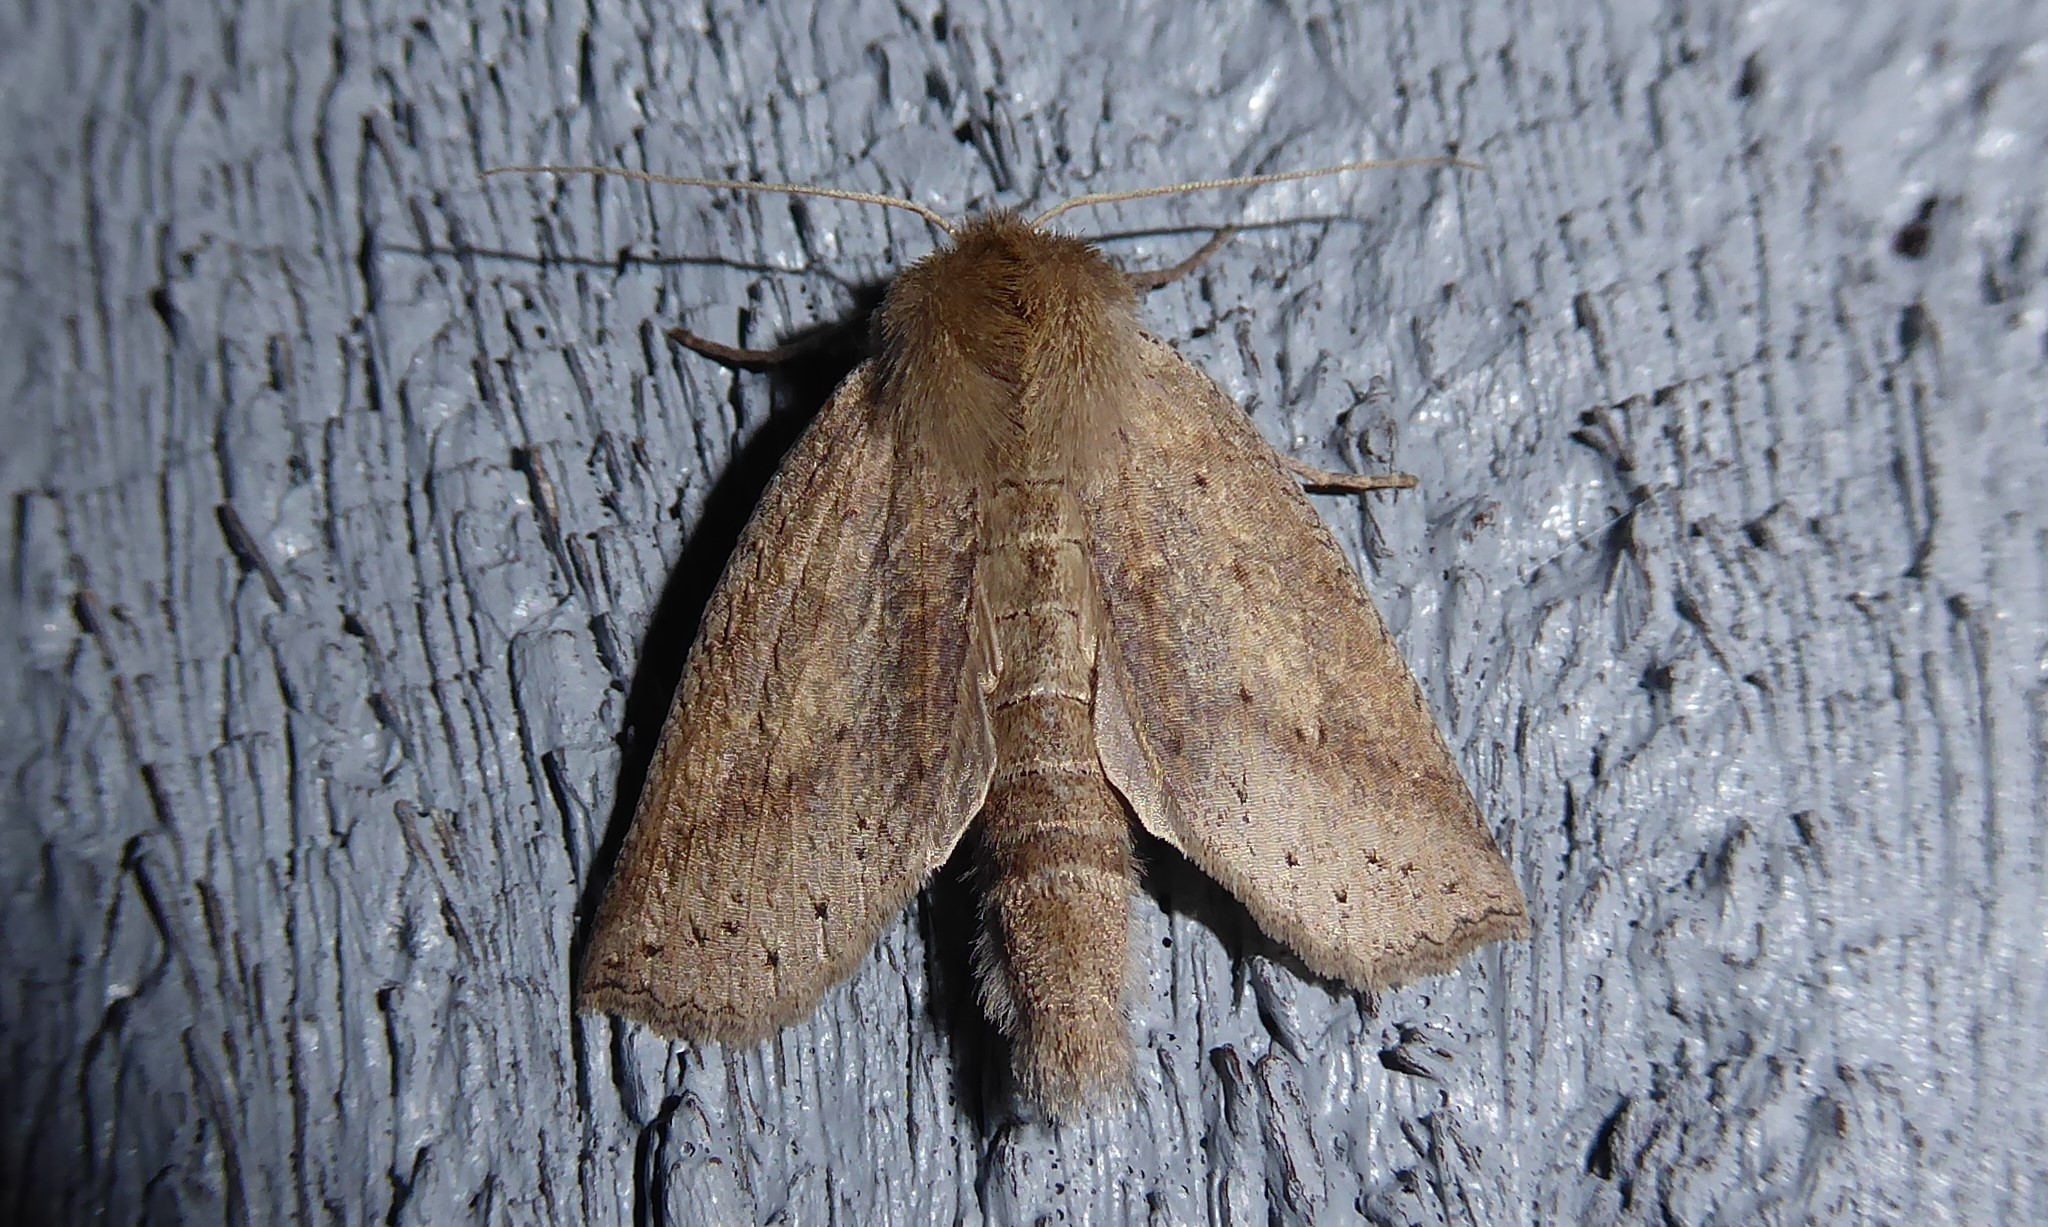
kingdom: Animalia
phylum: Arthropoda
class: Insecta
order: Lepidoptera
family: Geometridae
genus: Declana
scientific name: Declana leptomera
